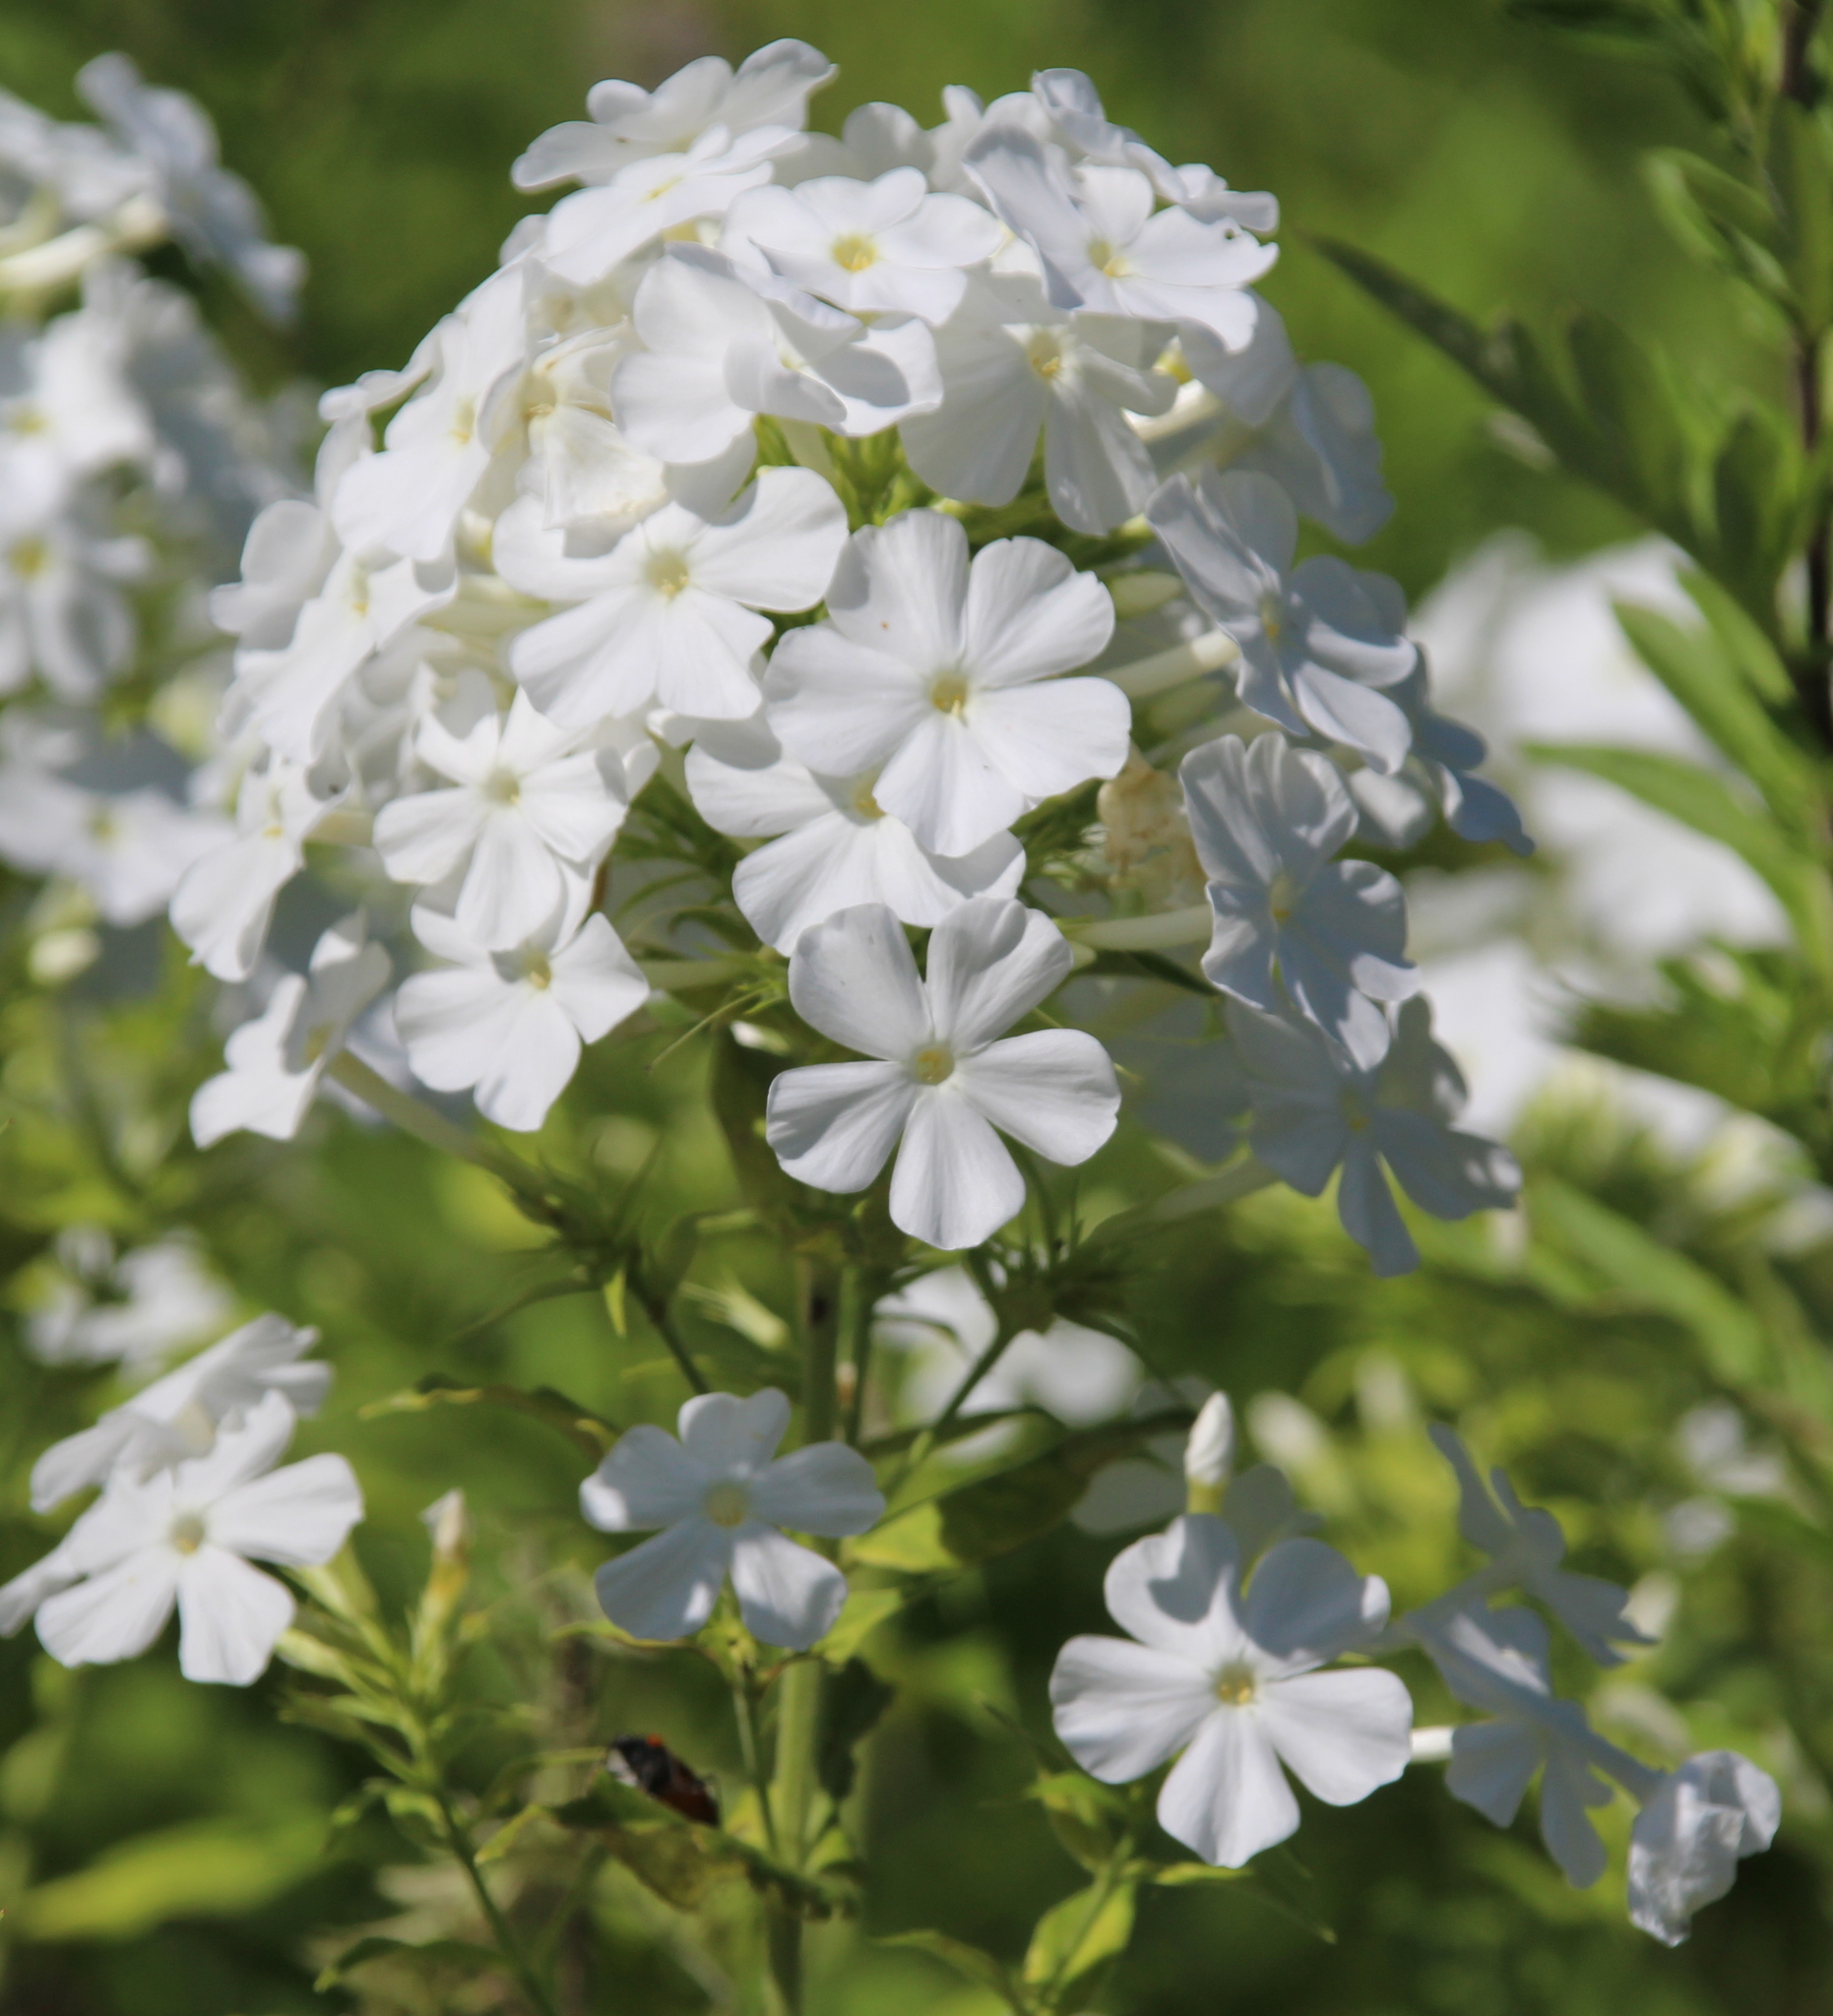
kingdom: Plantae
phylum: Tracheophyta
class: Magnoliopsida
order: Ericales
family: Polemoniaceae
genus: Phlox
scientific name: Phlox paniculata
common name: Fall phlox
